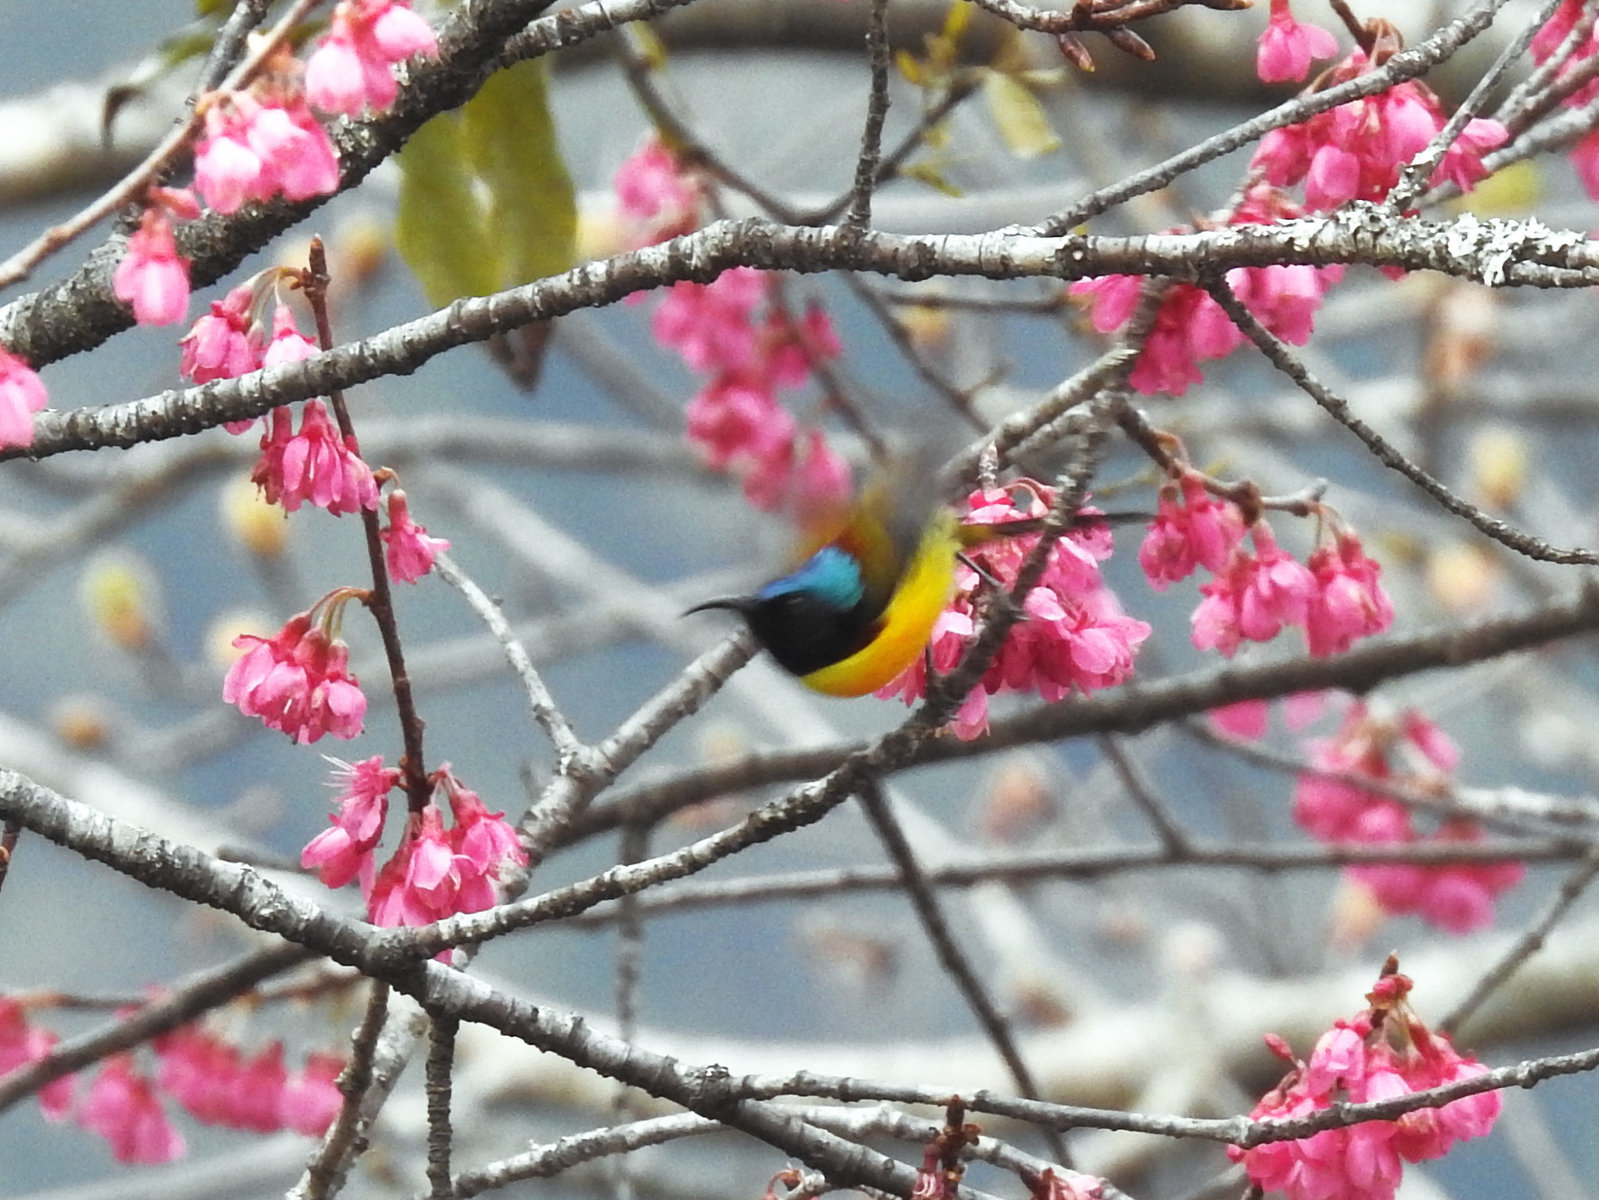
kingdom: Animalia
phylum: Chordata
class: Aves
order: Passeriformes
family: Nectariniidae
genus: Aethopyga
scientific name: Aethopyga nipalensis
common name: Green-tailed sunbird
